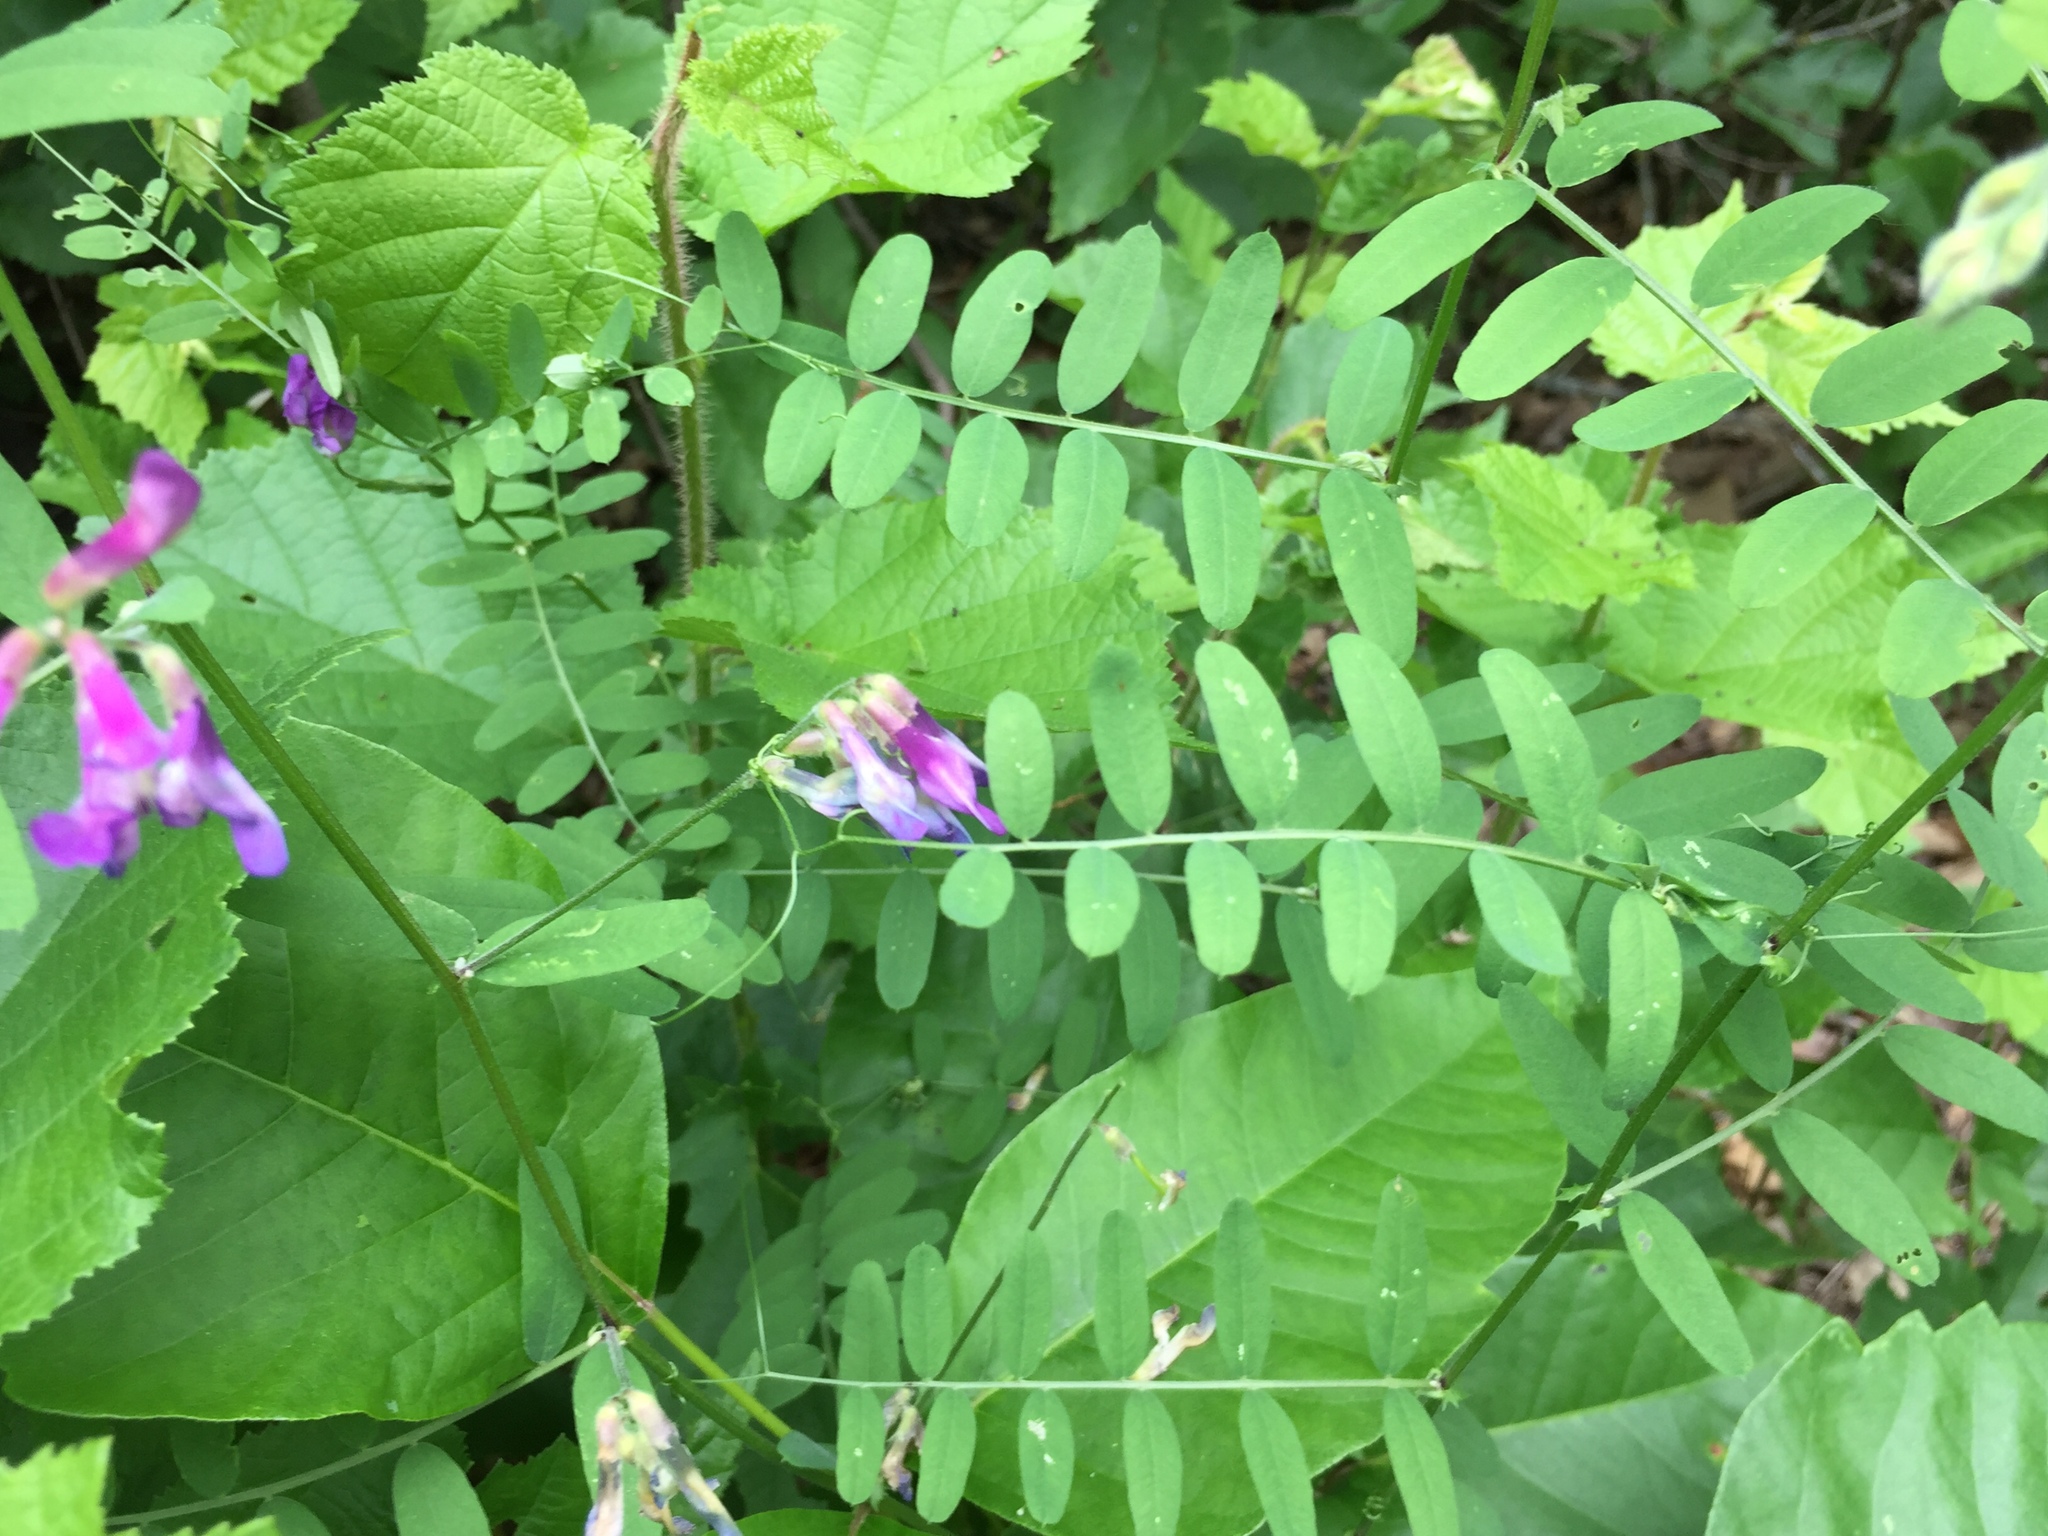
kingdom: Plantae
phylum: Tracheophyta
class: Magnoliopsida
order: Fabales
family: Fabaceae
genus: Vicia
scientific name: Vicia americana
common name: American vetch
